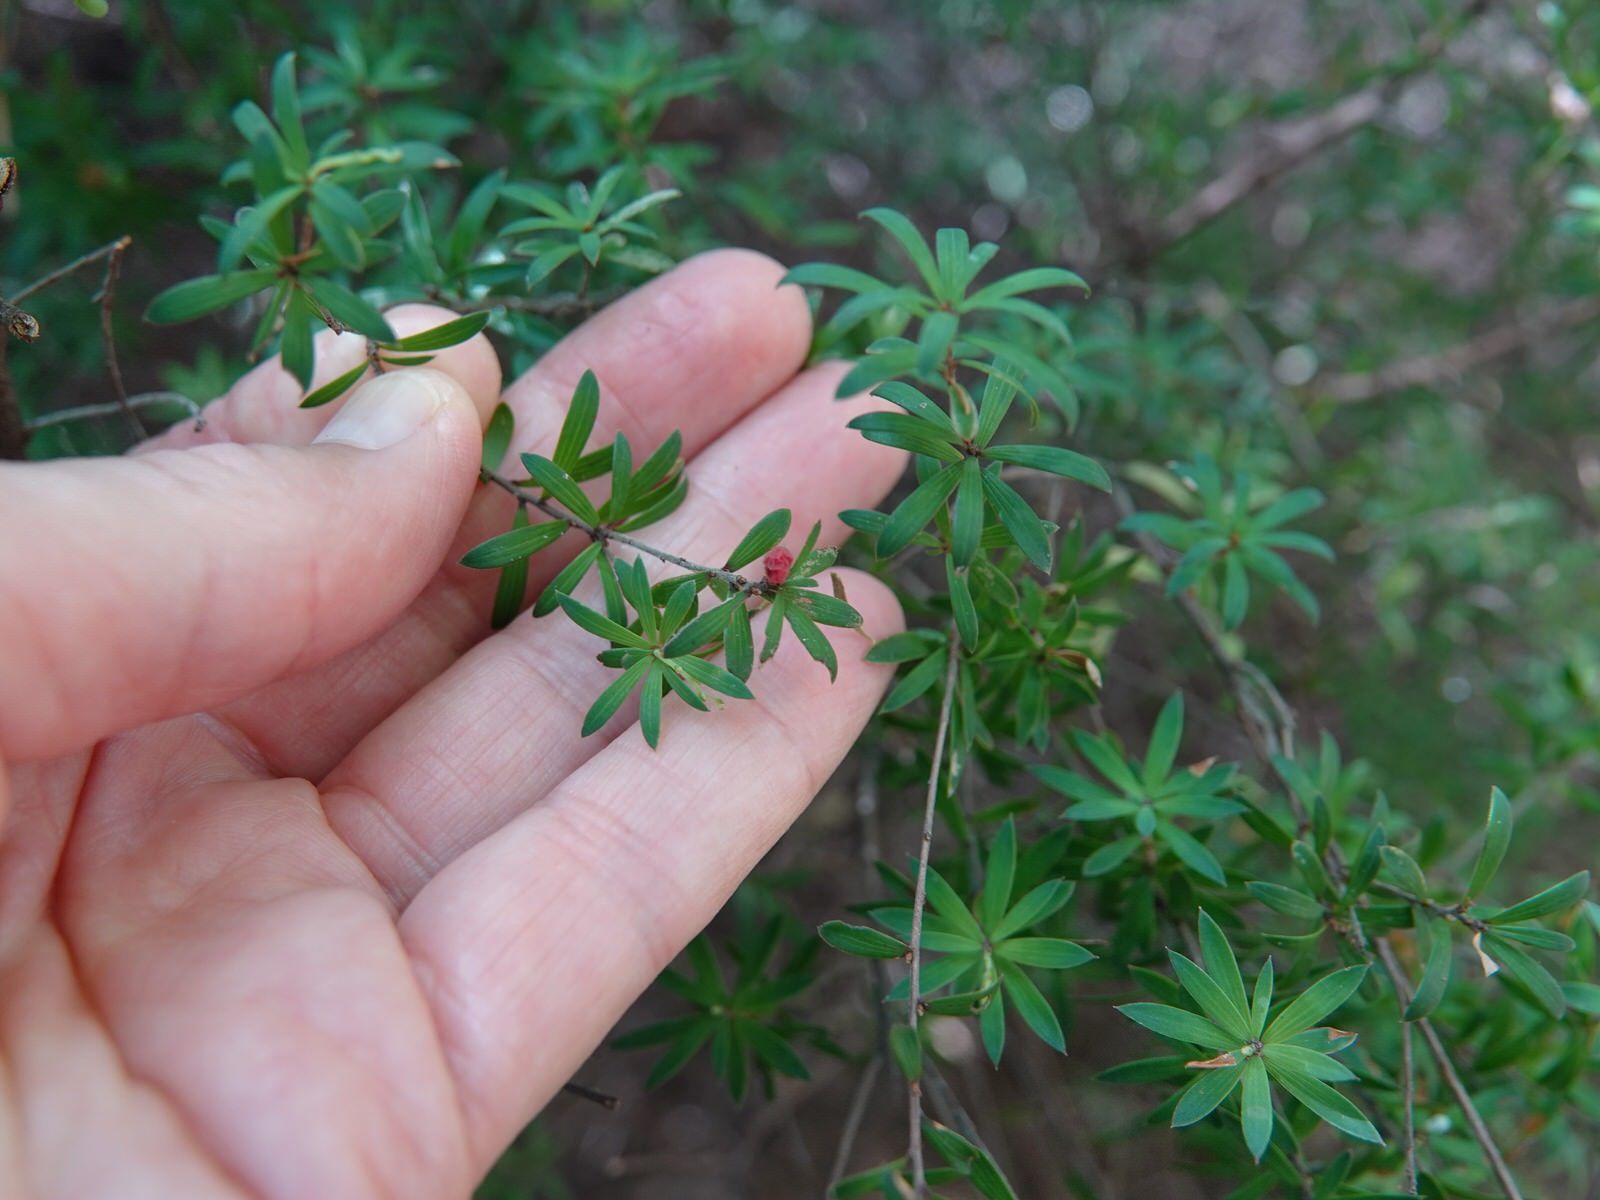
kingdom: Plantae
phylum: Tracheophyta
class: Magnoliopsida
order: Ericales
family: Ericaceae
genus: Leucopogon
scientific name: Leucopogon fasciculatus
